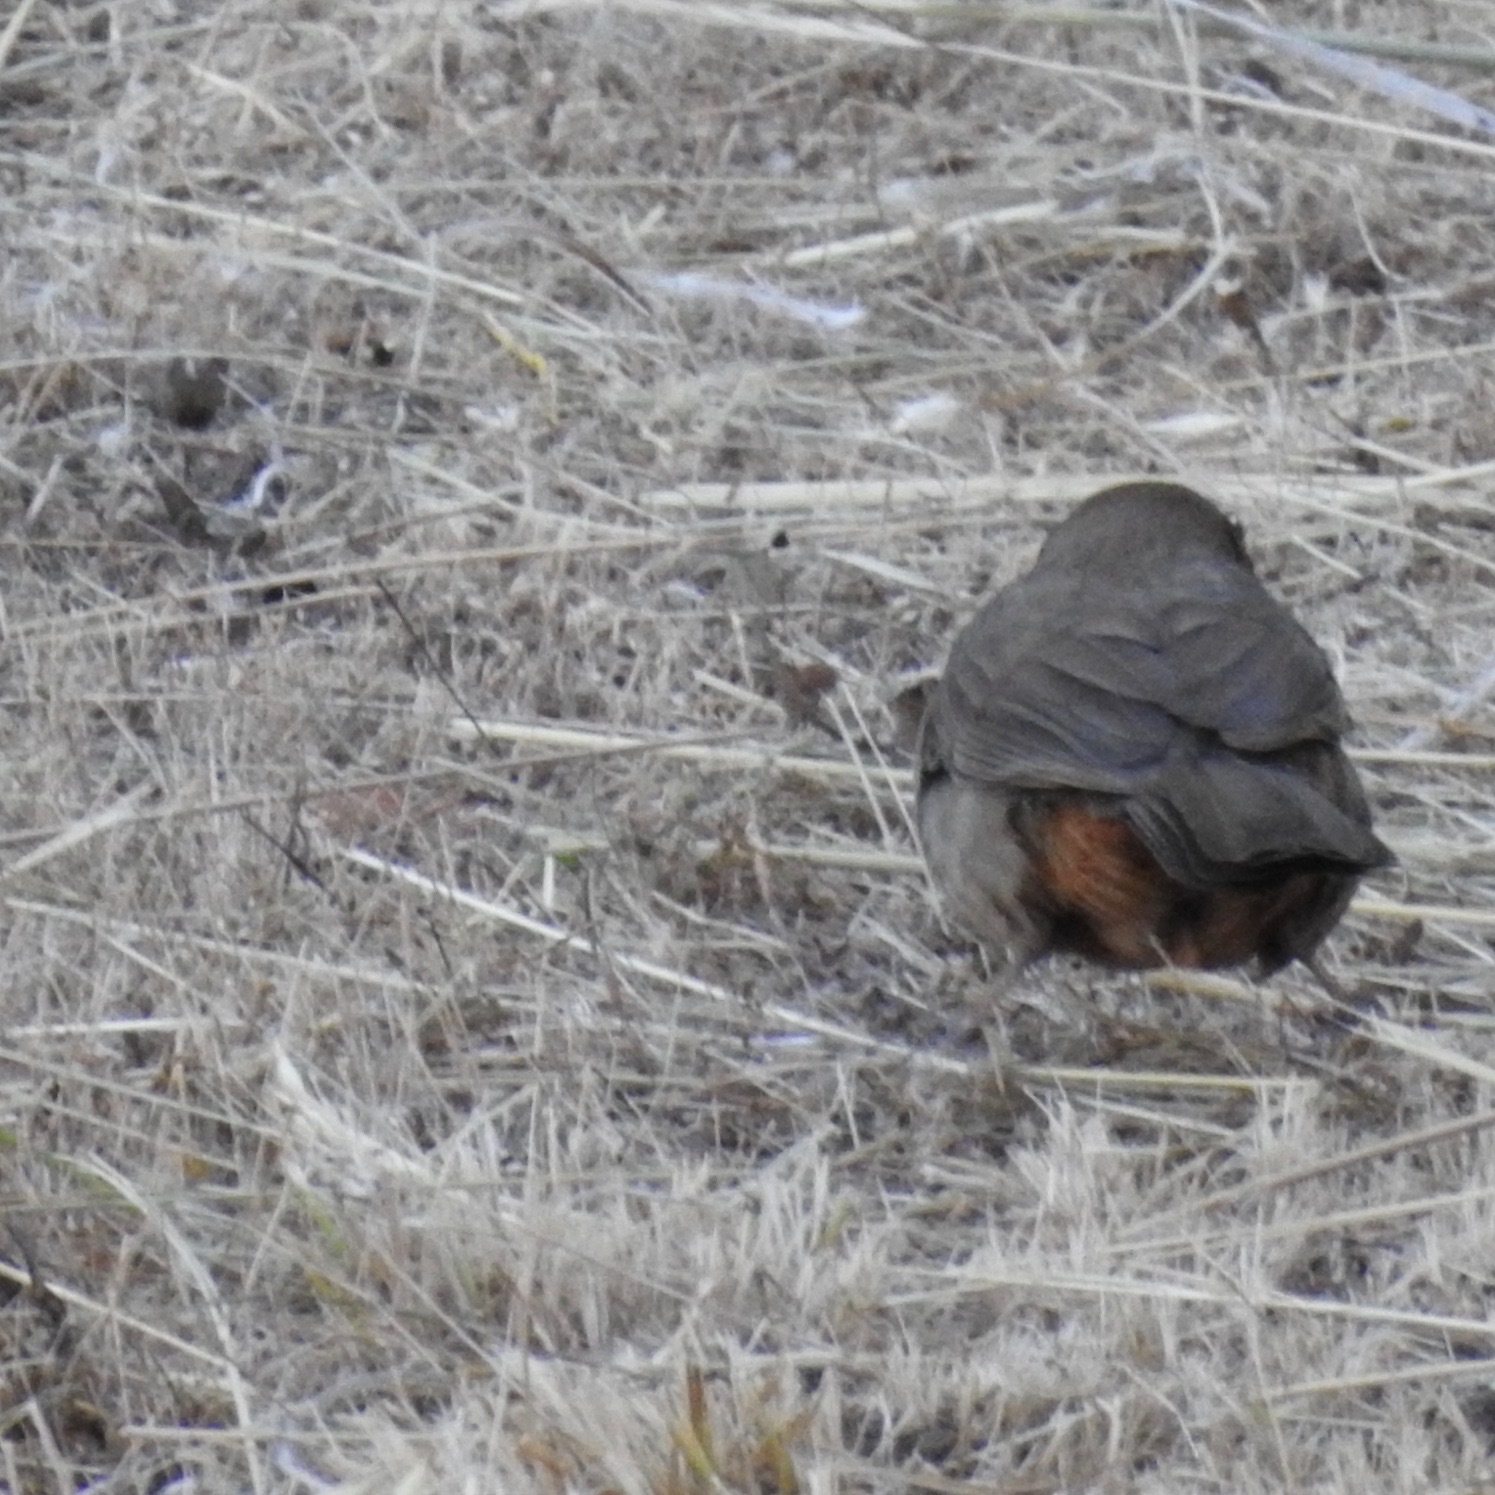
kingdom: Animalia
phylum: Chordata
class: Aves
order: Passeriformes
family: Passerellidae
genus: Melozone
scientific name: Melozone crissalis
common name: California towhee
